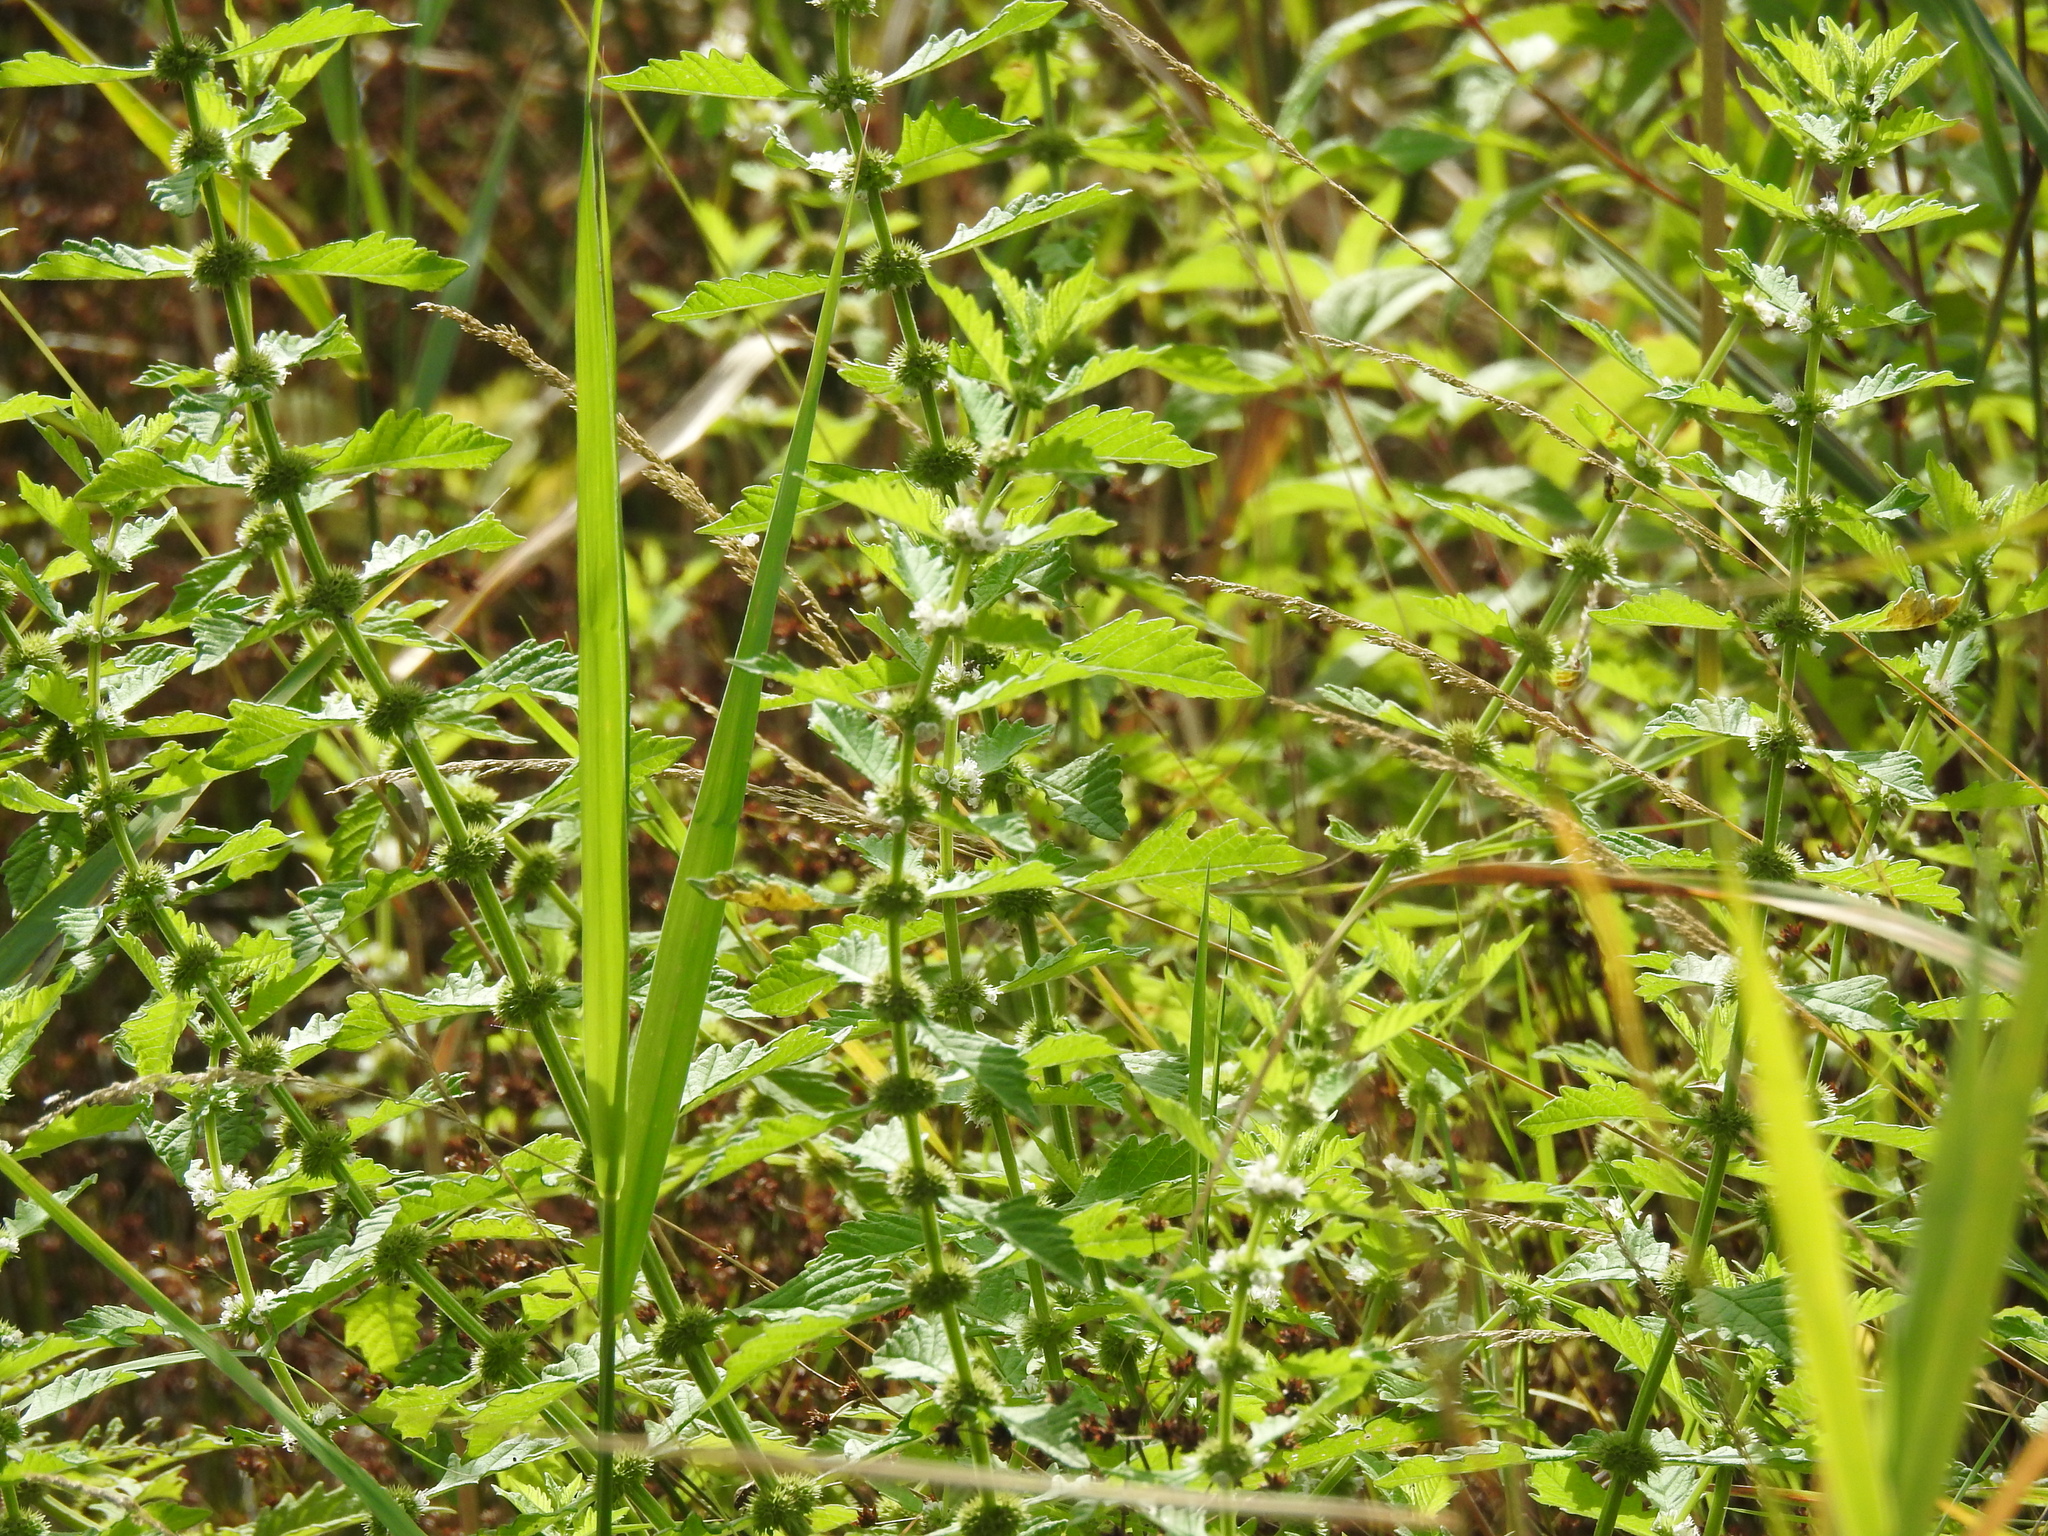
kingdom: Plantae
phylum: Tracheophyta
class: Magnoliopsida
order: Lamiales
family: Lamiaceae
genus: Lycopus
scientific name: Lycopus europaeus
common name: European bugleweed
